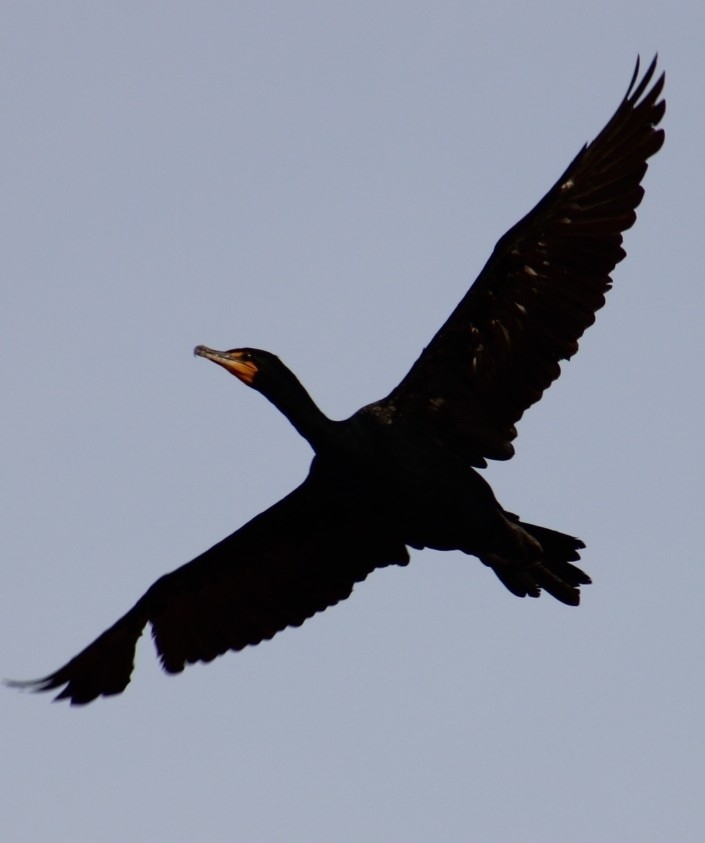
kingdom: Animalia
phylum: Chordata
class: Aves
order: Suliformes
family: Phalacrocoracidae
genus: Phalacrocorax
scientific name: Phalacrocorax auritus
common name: Double-crested cormorant
